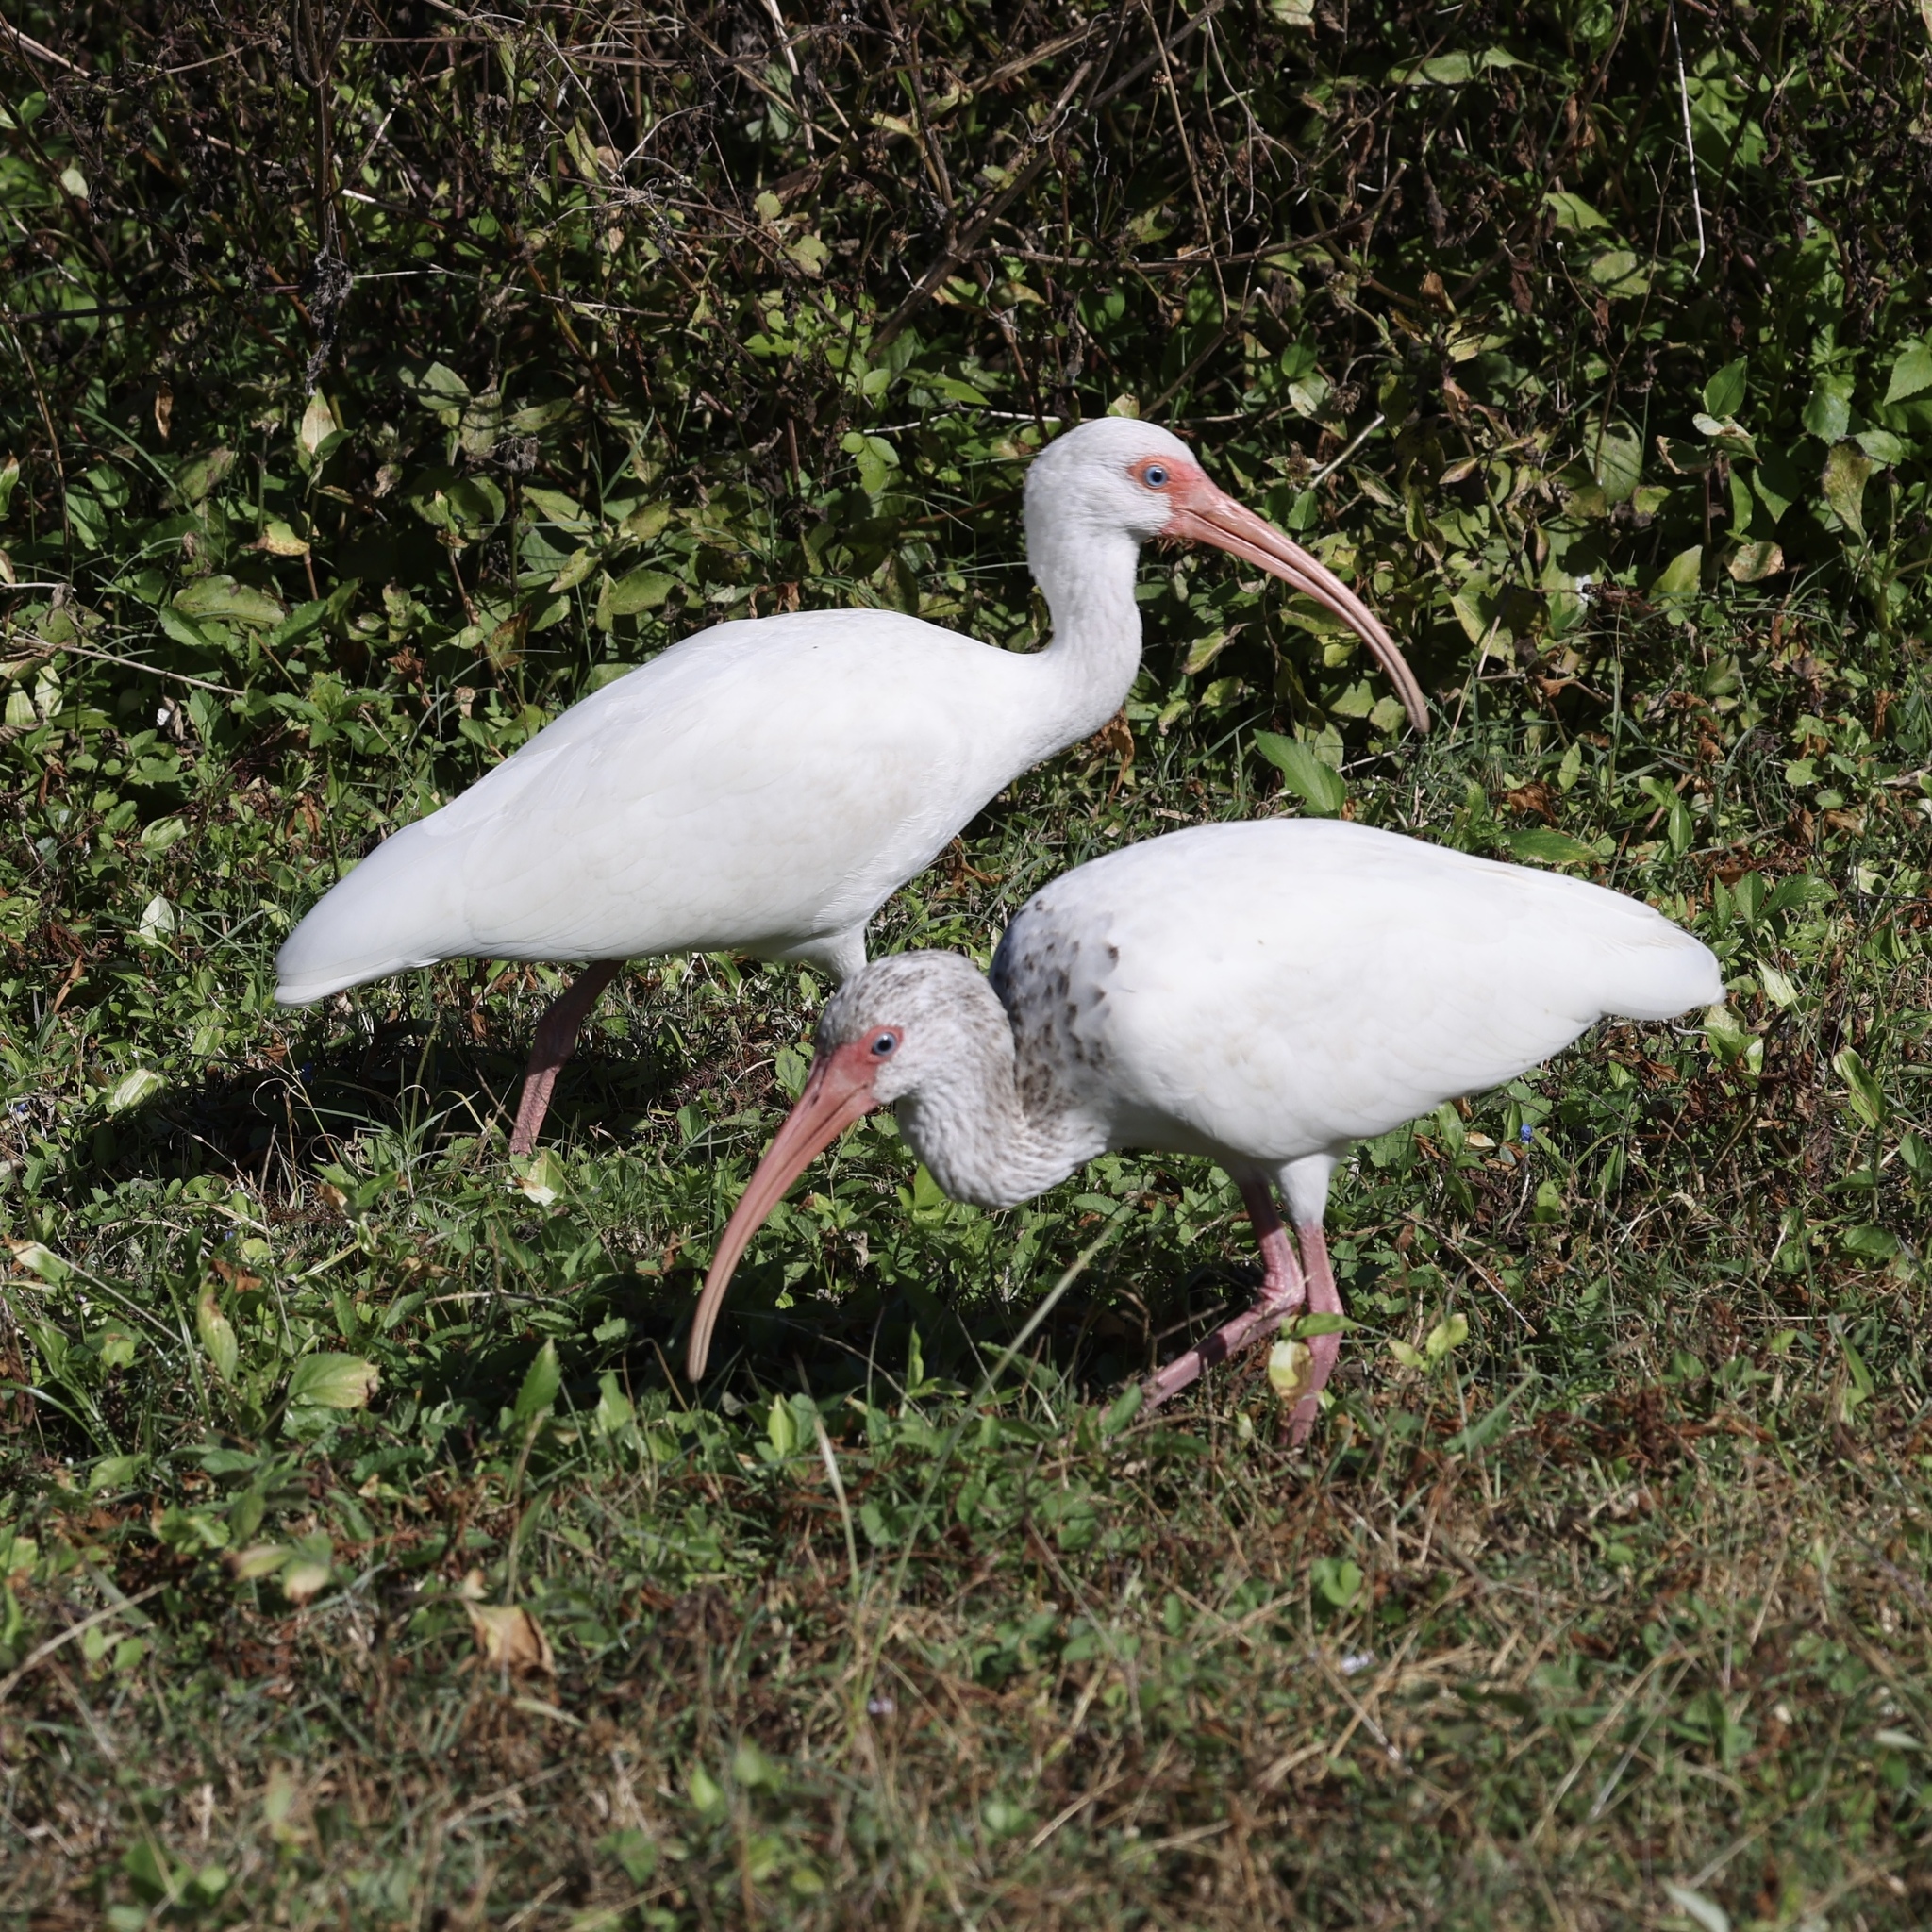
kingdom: Animalia
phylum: Chordata
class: Aves
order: Pelecaniformes
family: Threskiornithidae
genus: Eudocimus
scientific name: Eudocimus albus
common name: White ibis
